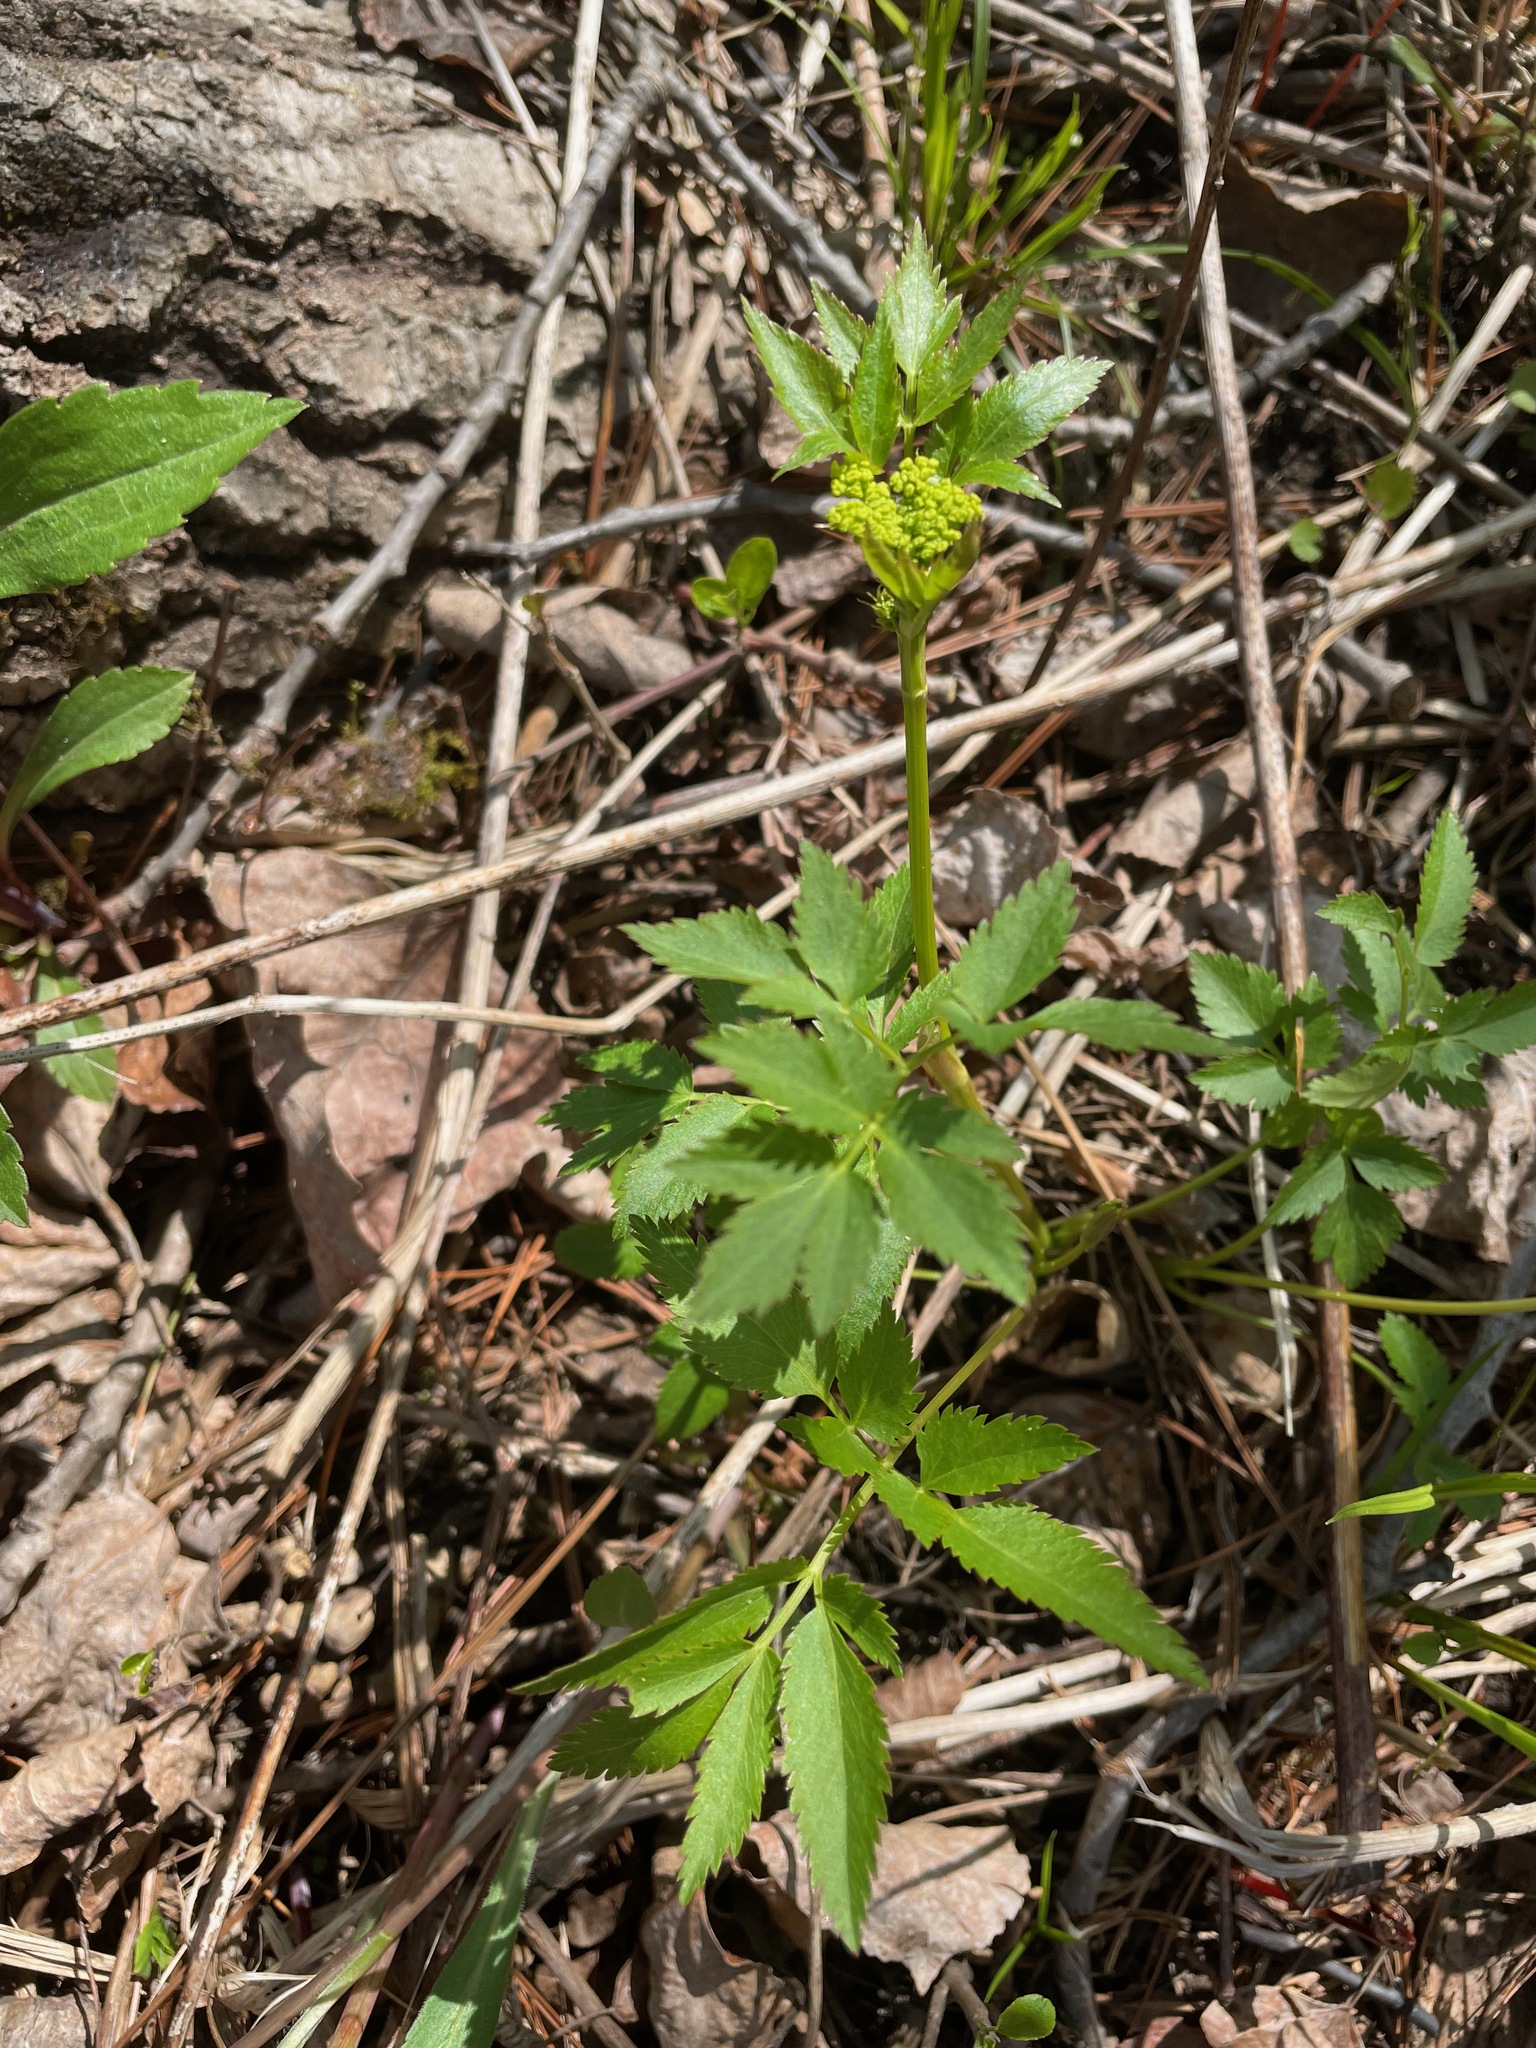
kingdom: Plantae
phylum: Tracheophyta
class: Magnoliopsida
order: Apiales
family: Apiaceae
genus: Zizia
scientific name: Zizia aurea
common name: Golden alexanders
